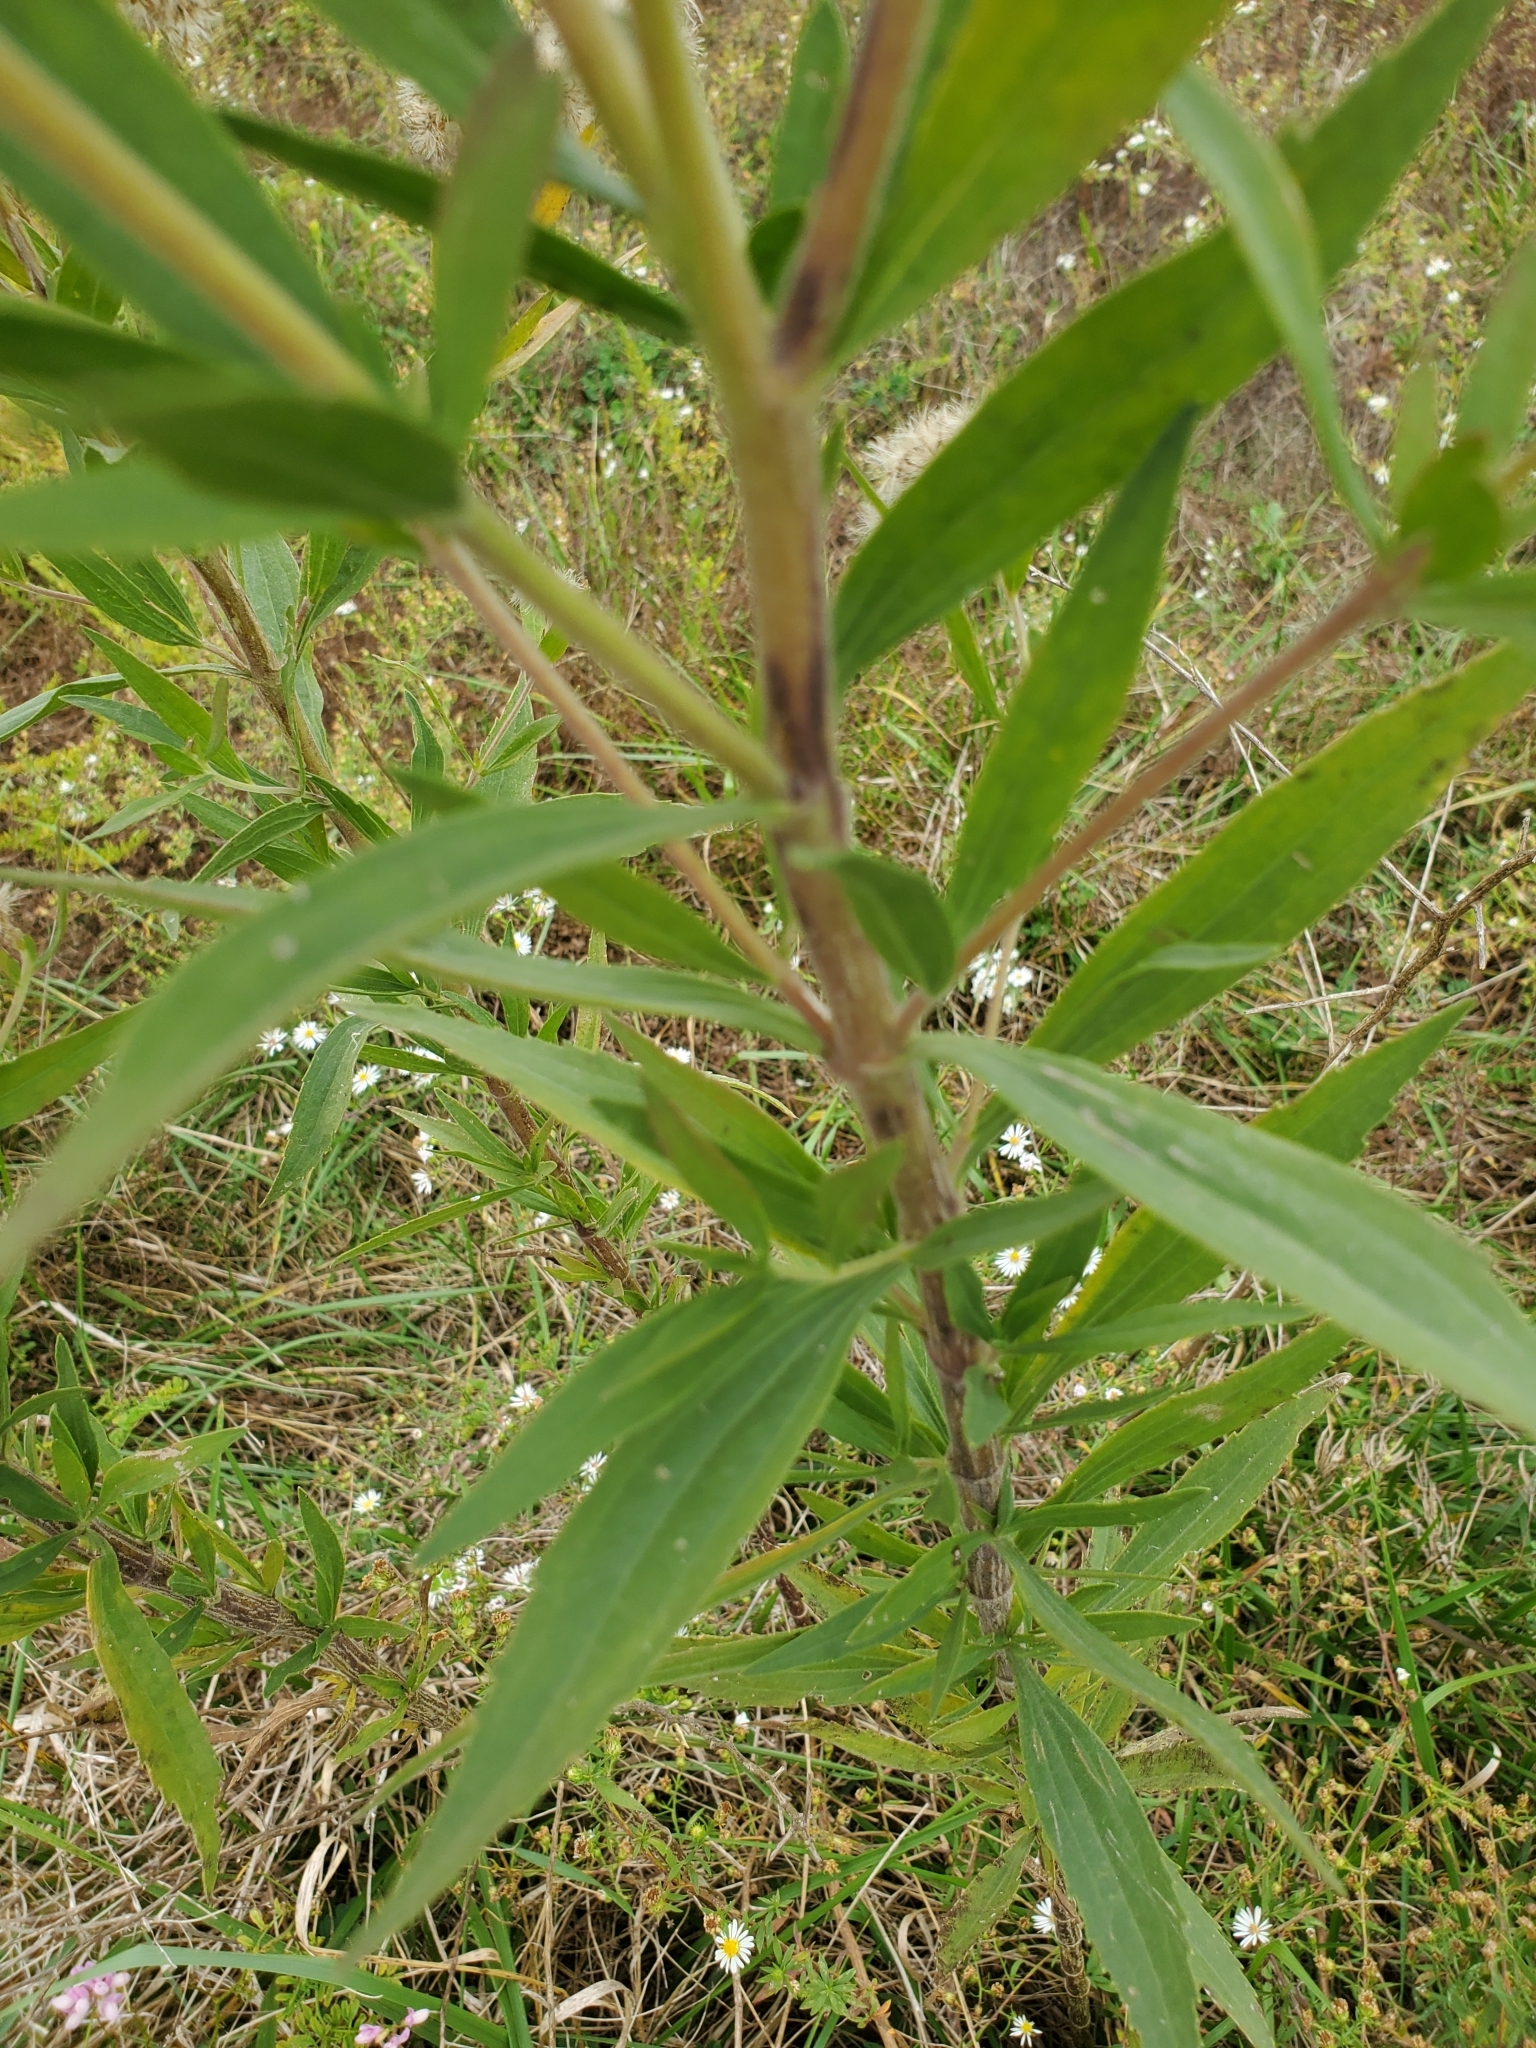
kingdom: Plantae
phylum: Tracheophyta
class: Magnoliopsida
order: Asterales
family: Asteraceae
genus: Eupatorium
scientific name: Eupatorium altissimum
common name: Tall thoroughwort
